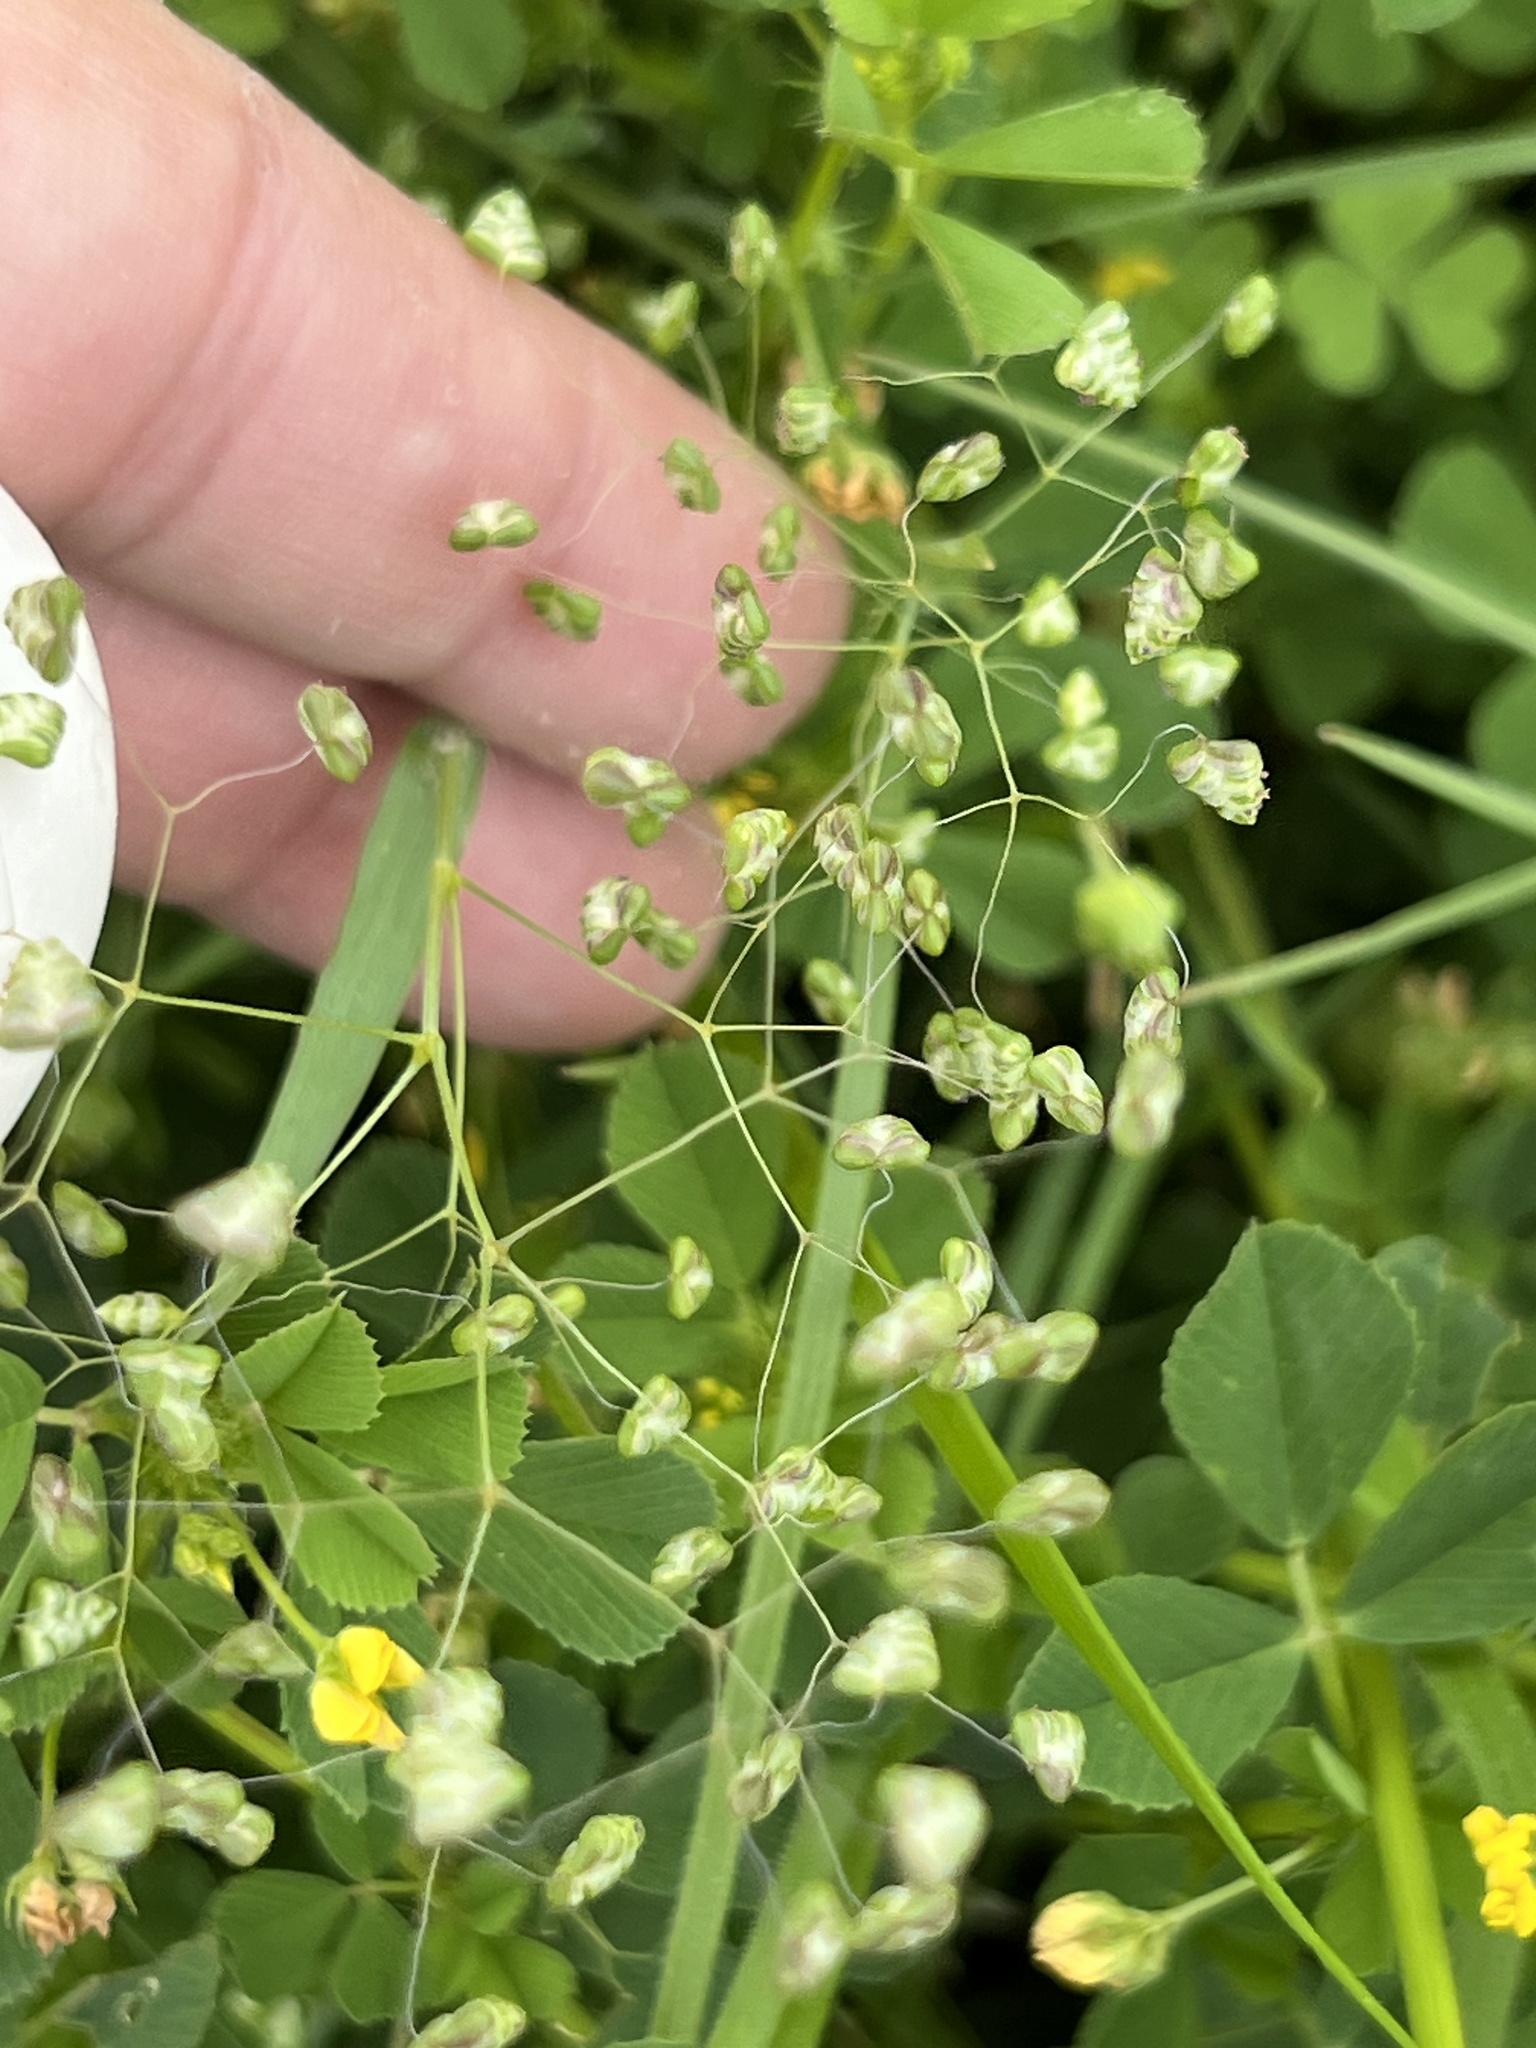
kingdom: Plantae
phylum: Tracheophyta
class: Liliopsida
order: Poales
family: Poaceae
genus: Briza
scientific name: Briza minor
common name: Lesser quaking-grass
